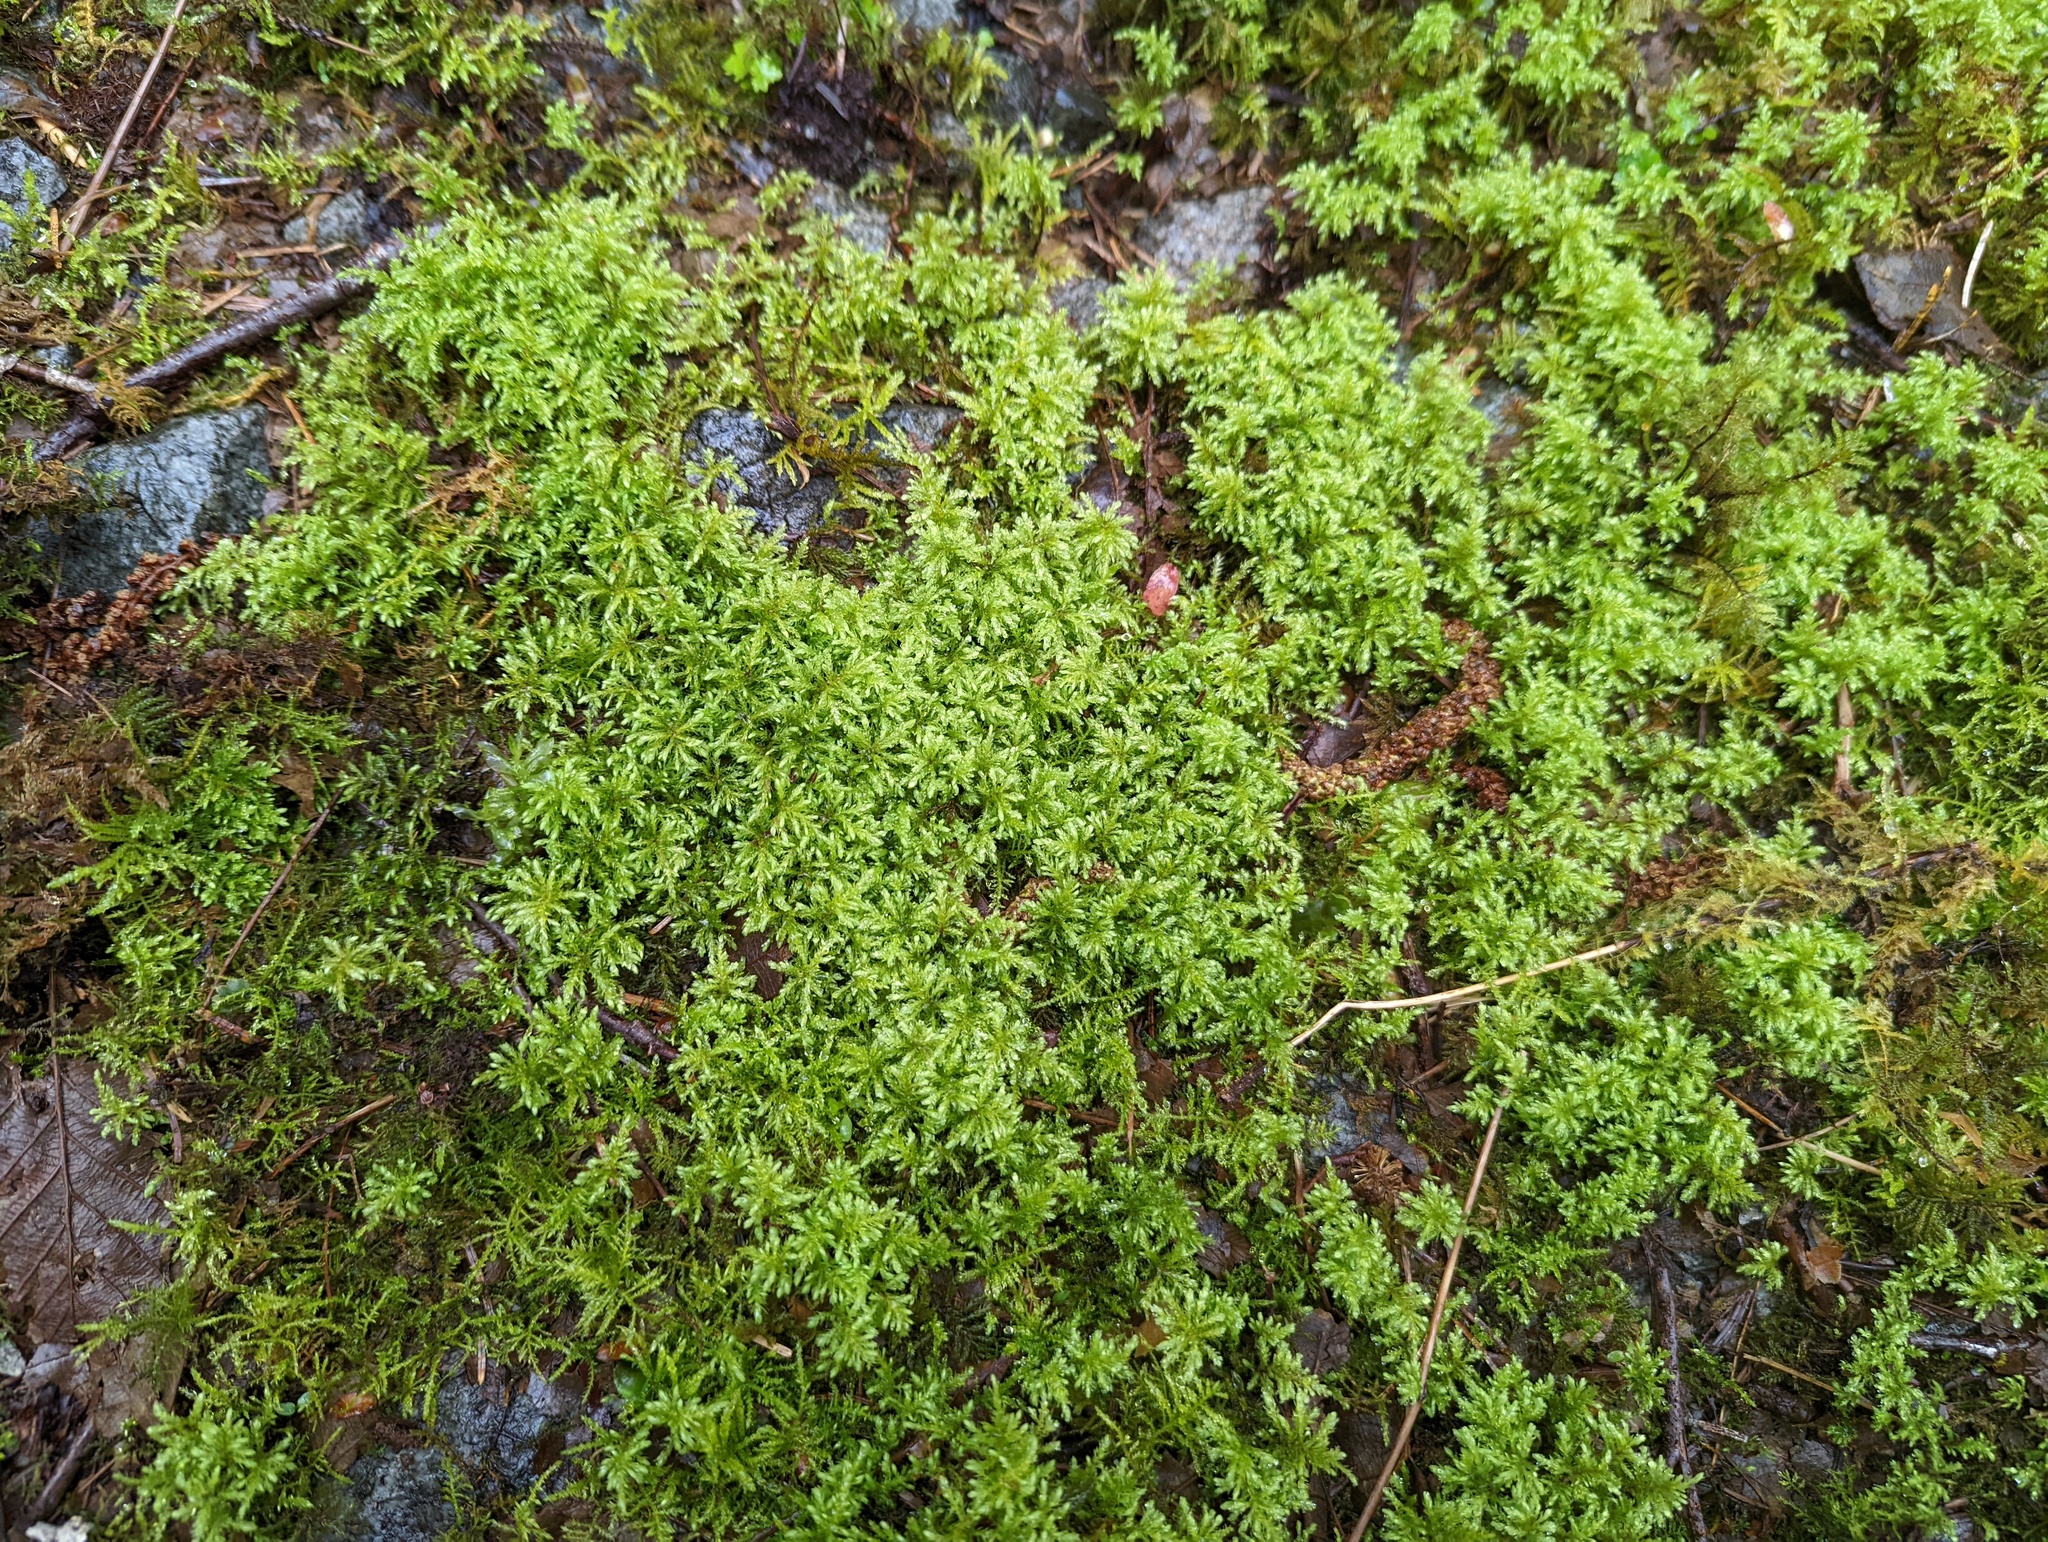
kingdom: Plantae
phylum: Bryophyta
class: Bryopsida
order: Bryales
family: Mniaceae
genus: Leucolepis
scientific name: Leucolepis acanthoneura
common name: Leucolepis umbrella moss
